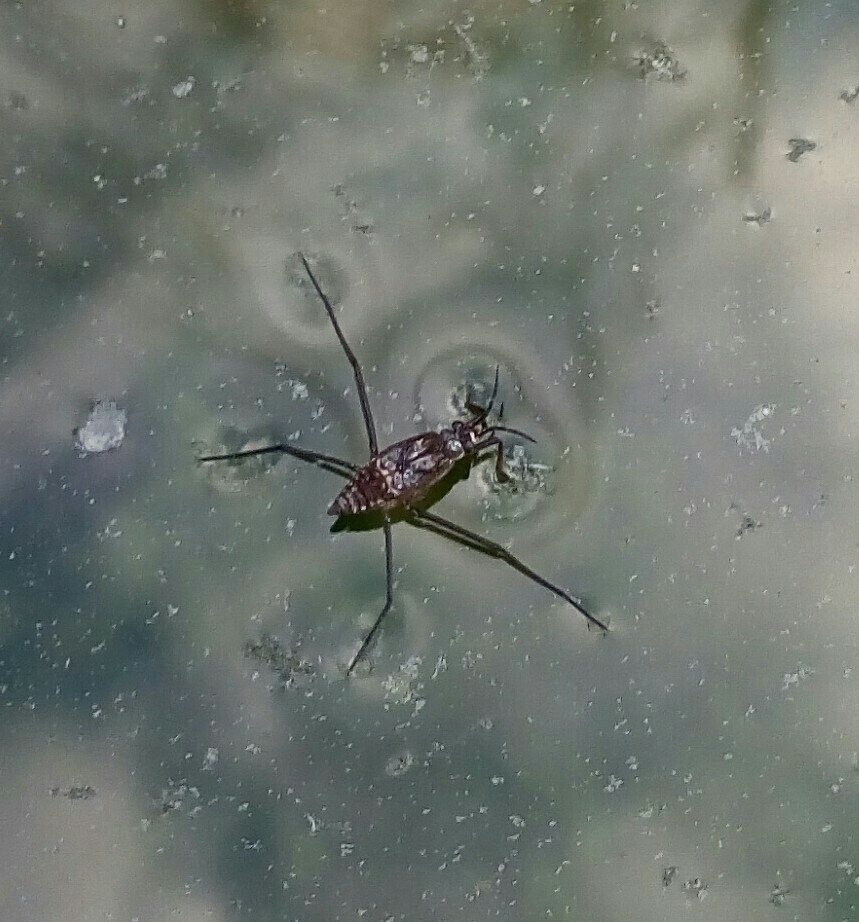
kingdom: Animalia
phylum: Arthropoda
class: Insecta
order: Hemiptera
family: Gerridae
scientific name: Gerridae
